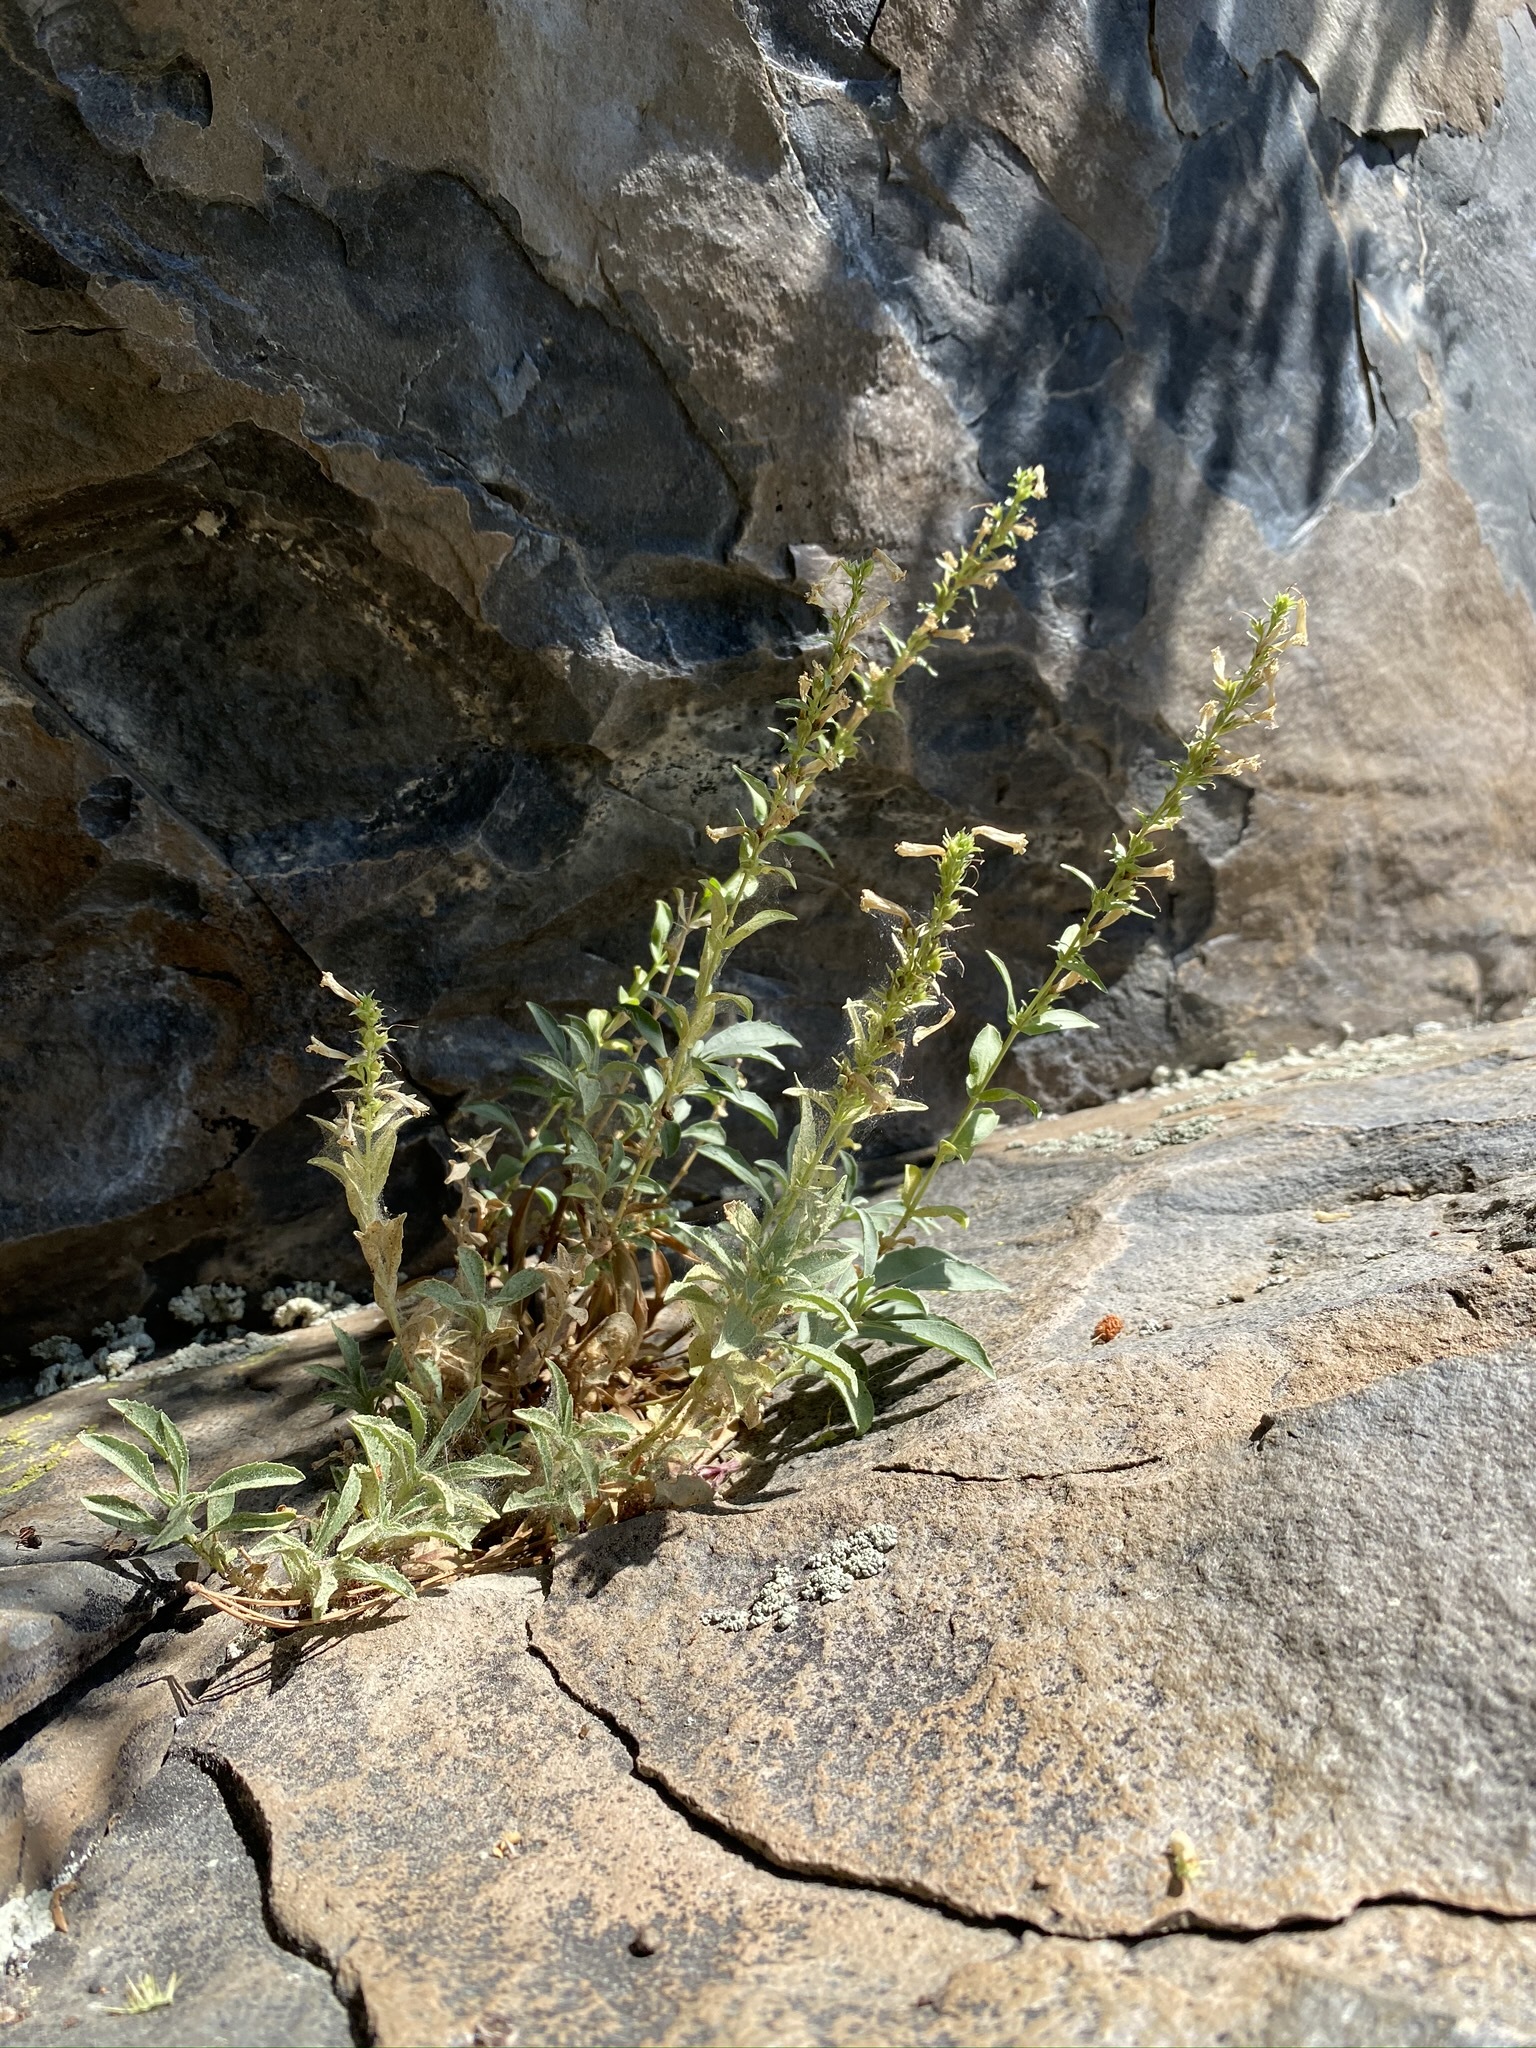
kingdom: Plantae
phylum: Tracheophyta
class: Magnoliopsida
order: Lamiales
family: Plantaginaceae
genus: Penstemon
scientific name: Penstemon deustus
